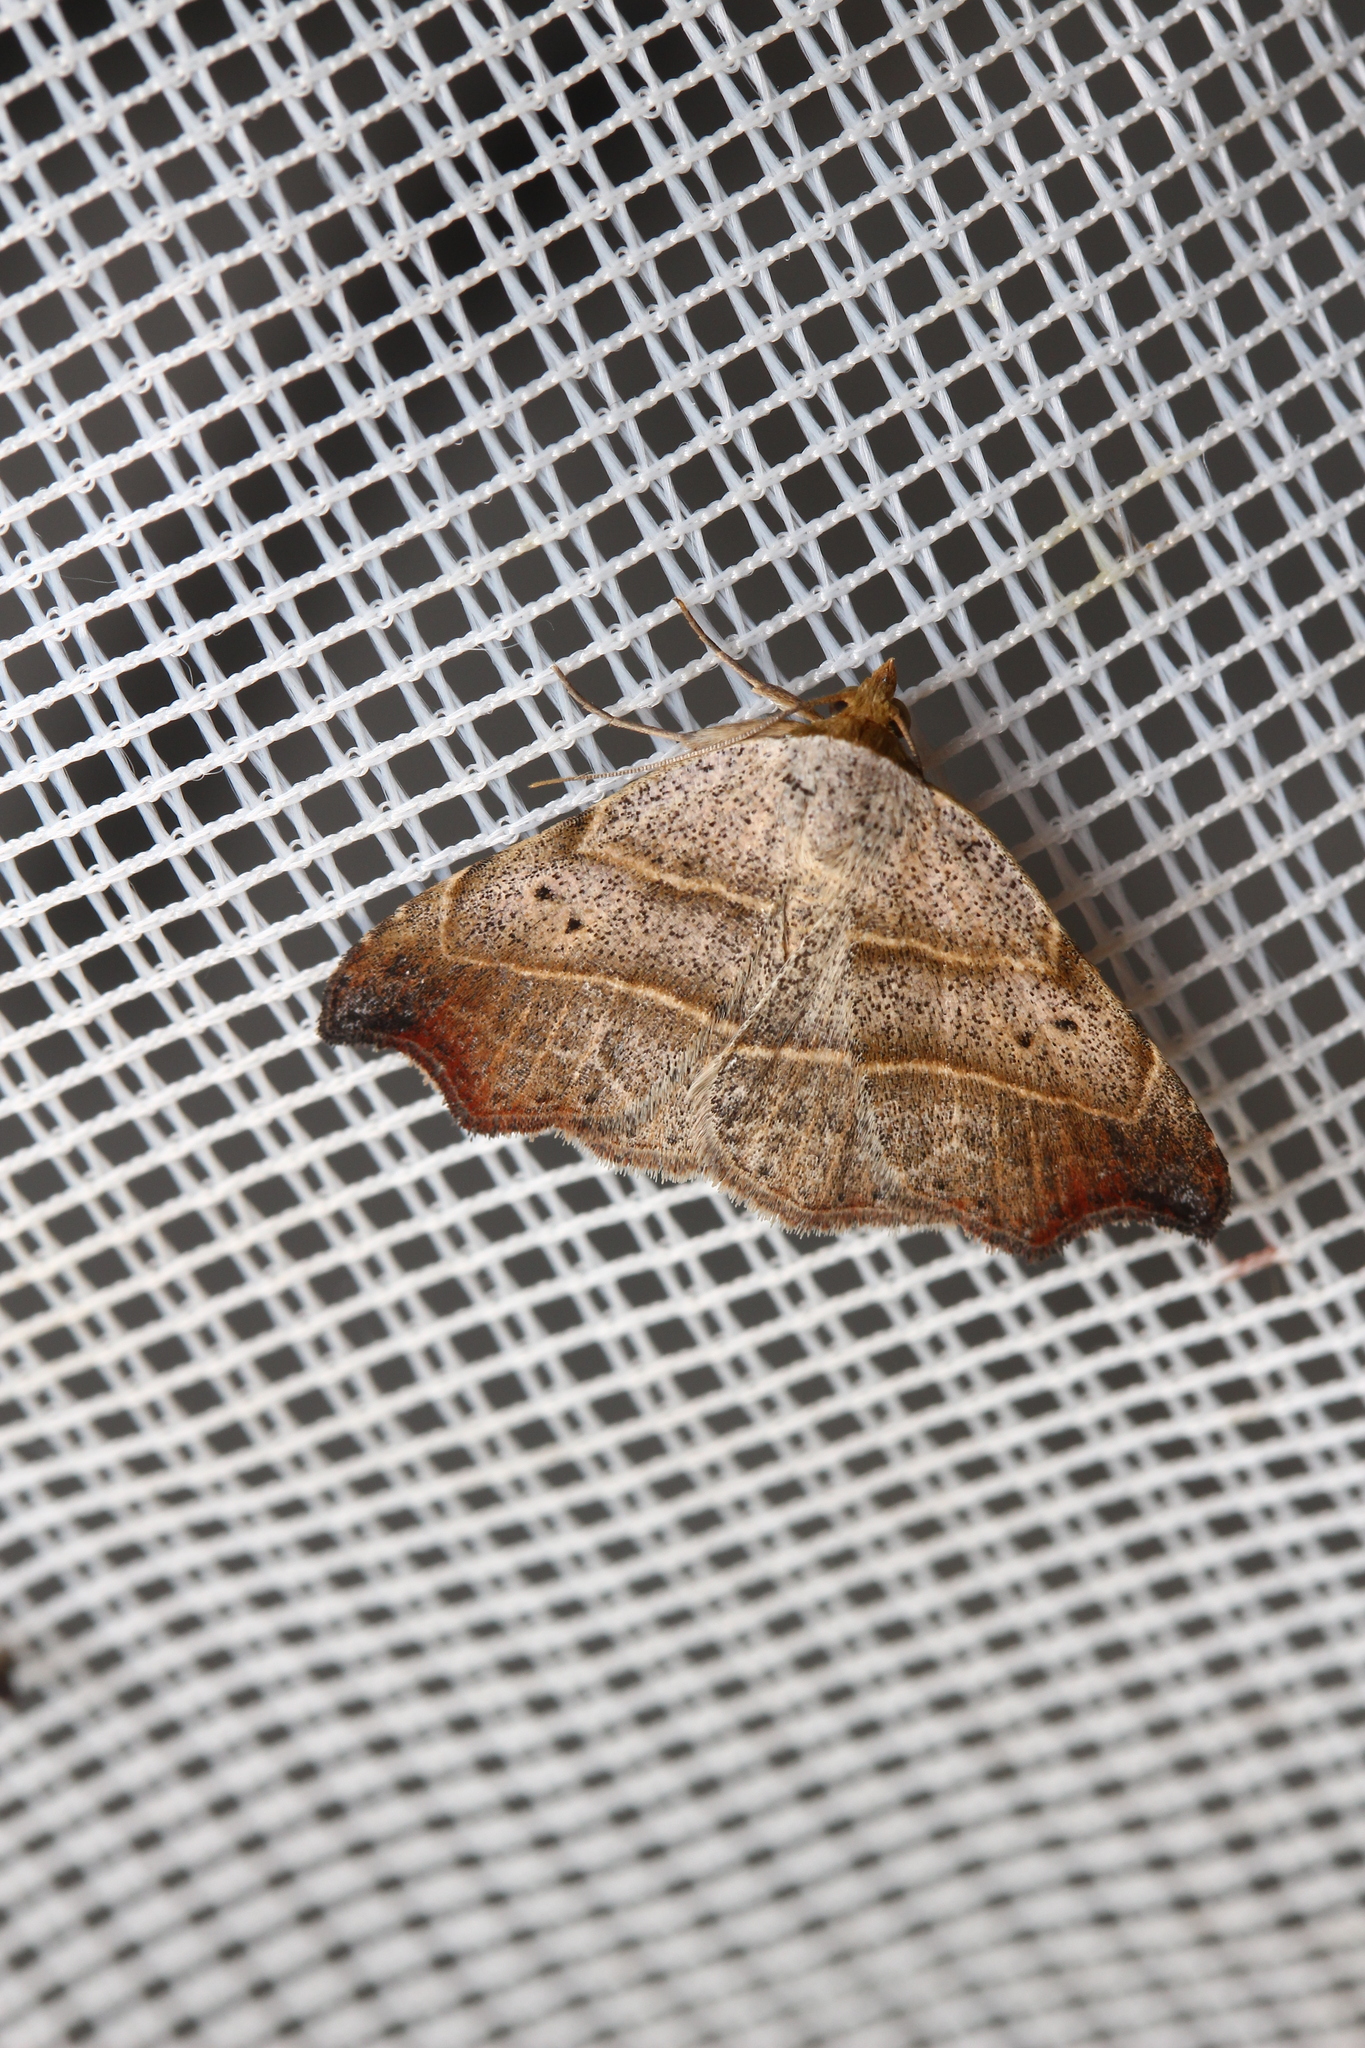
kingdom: Animalia
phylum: Arthropoda
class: Insecta
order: Lepidoptera
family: Erebidae
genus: Laspeyria
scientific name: Laspeyria flexula
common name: Beautiful hook-tip
